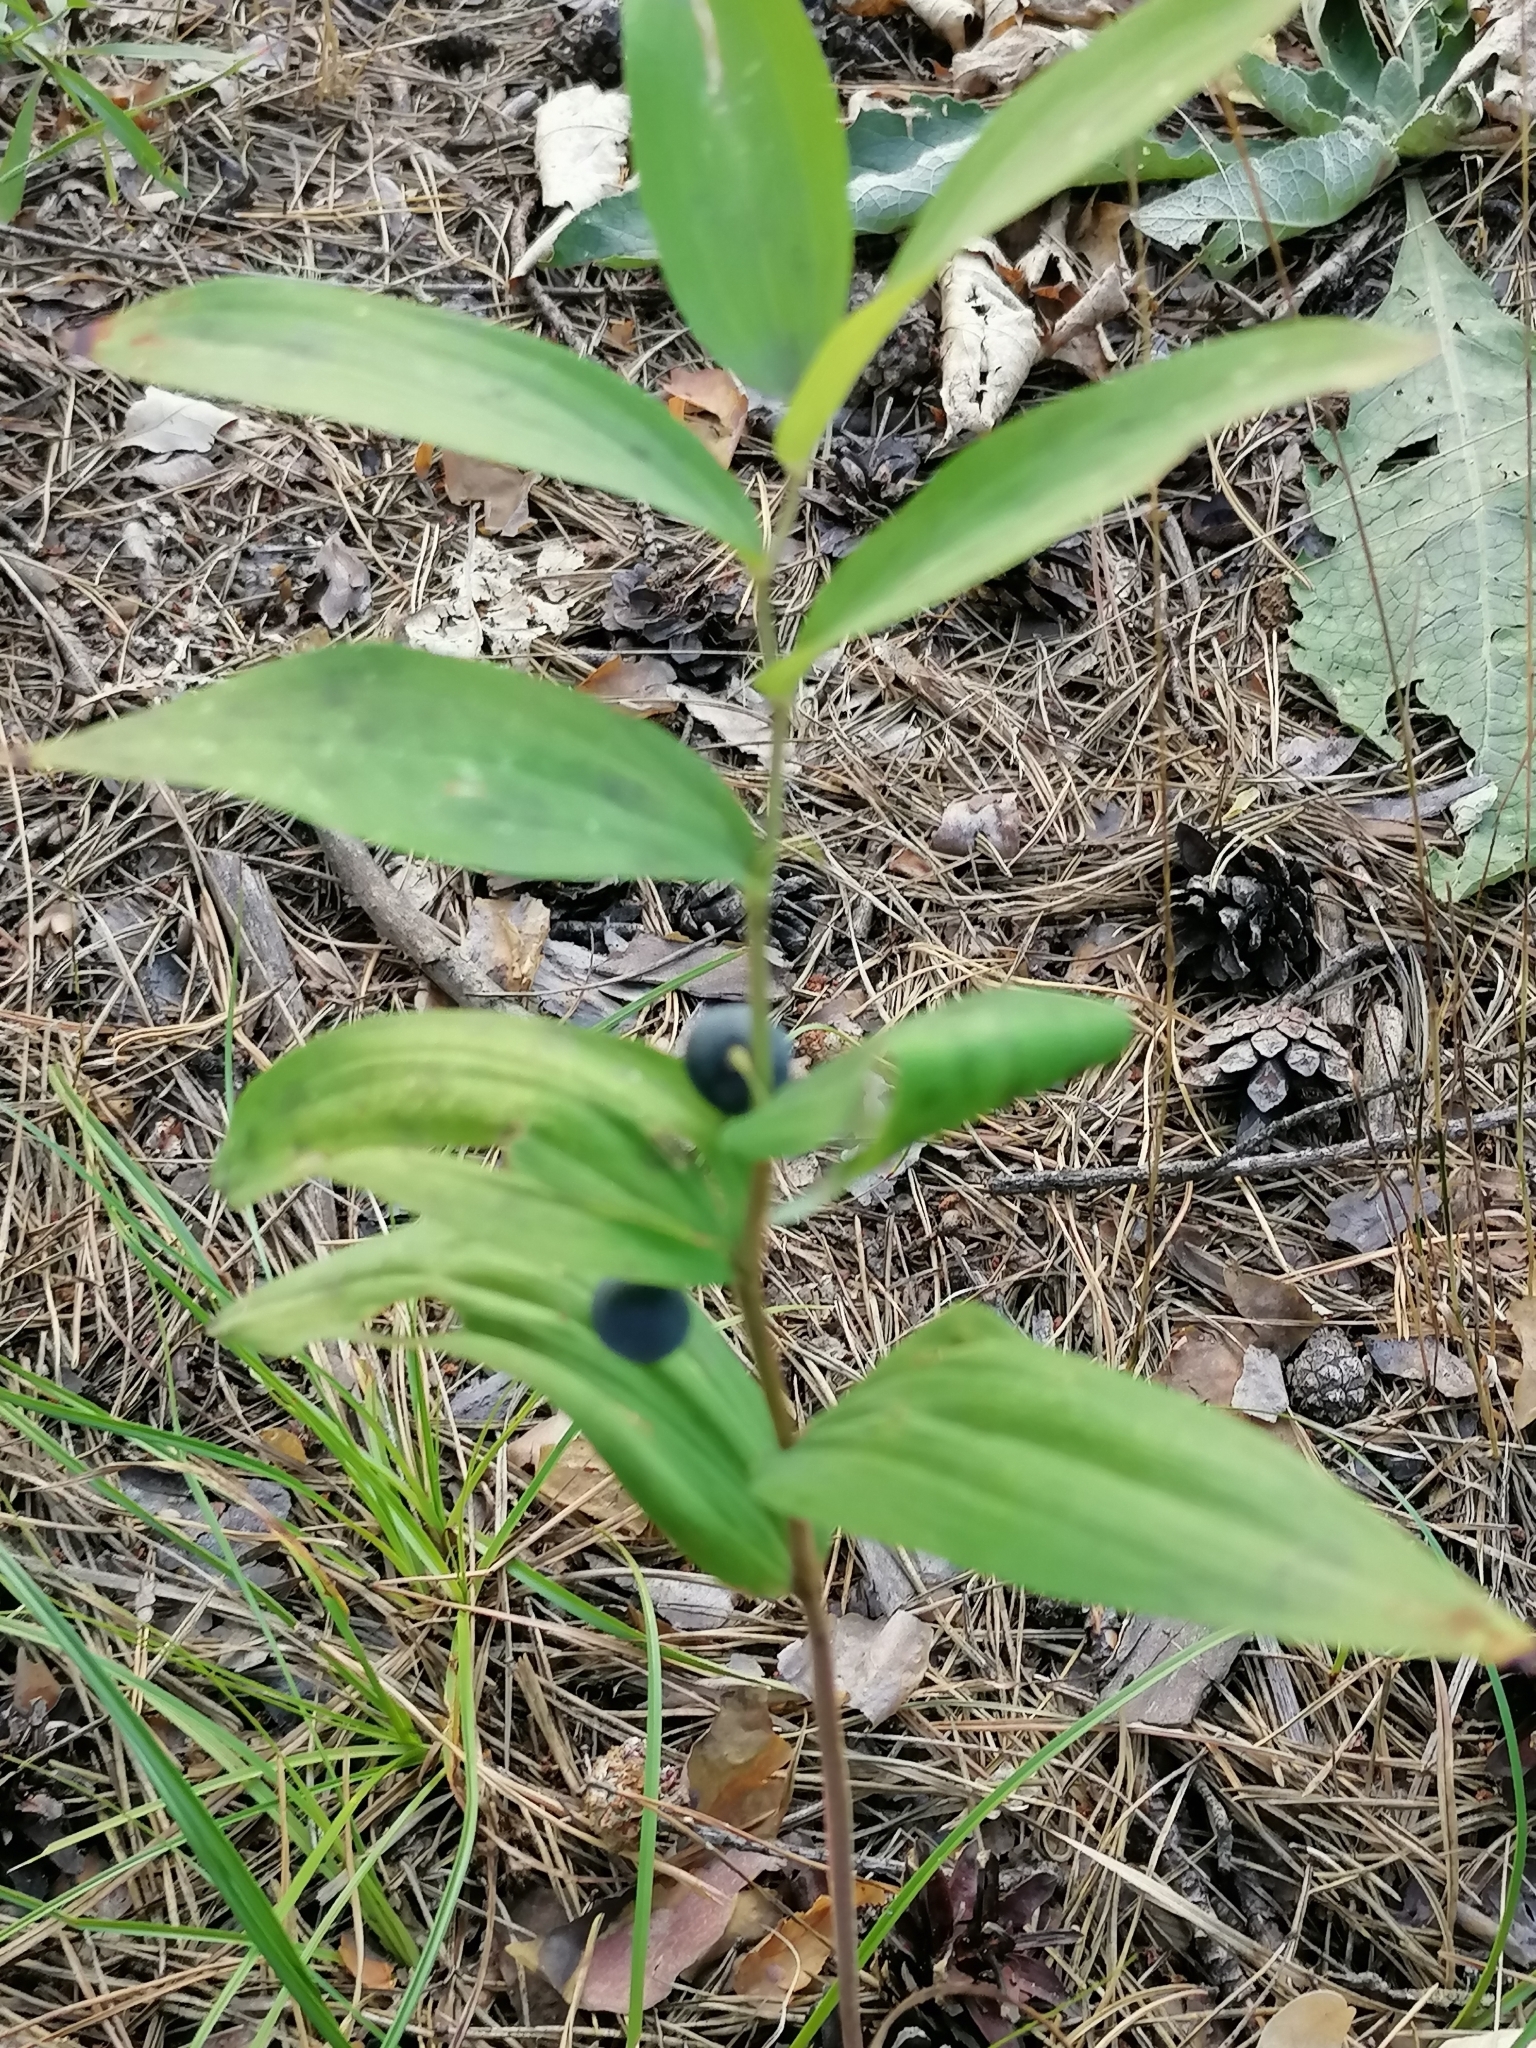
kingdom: Plantae
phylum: Tracheophyta
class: Liliopsida
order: Asparagales
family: Asparagaceae
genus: Polygonatum
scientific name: Polygonatum odoratum
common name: Angular solomon's-seal
